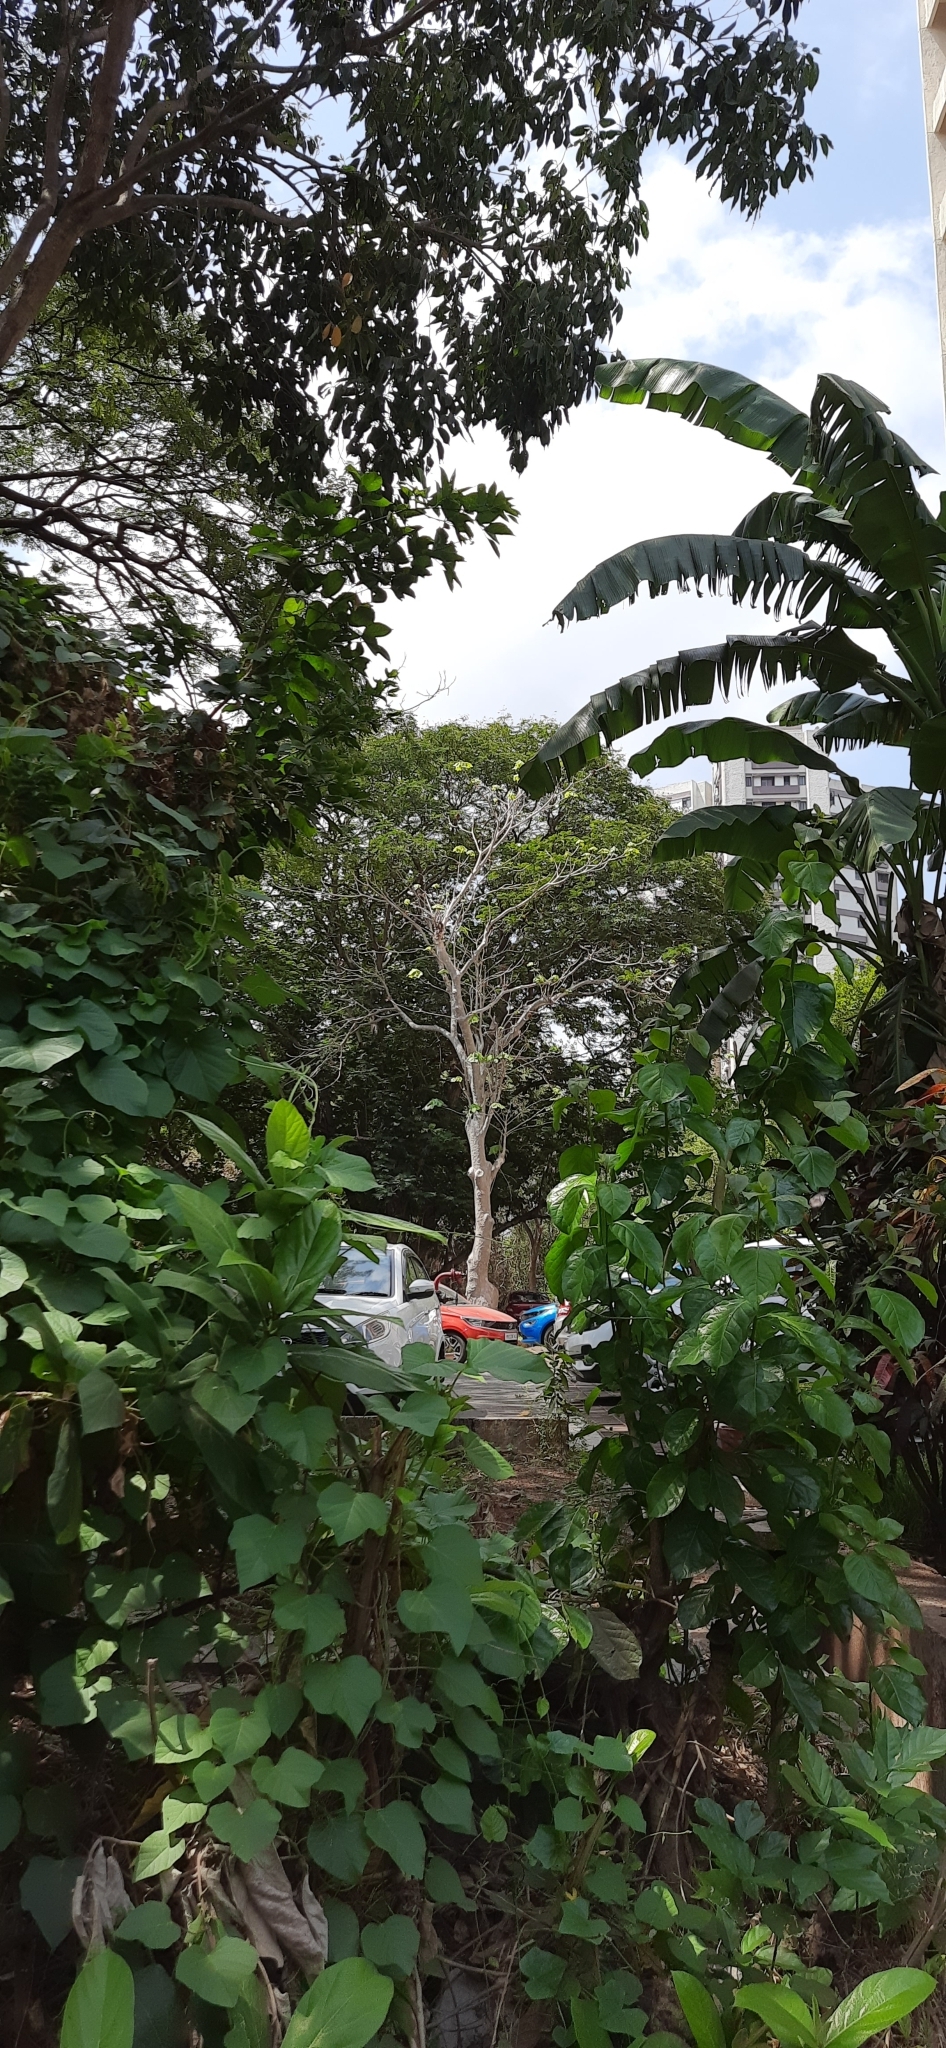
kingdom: Plantae
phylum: Tracheophyta
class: Magnoliopsida
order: Malvales
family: Malvaceae
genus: Sterculia
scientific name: Sterculia urens
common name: Indian-tragacanth
